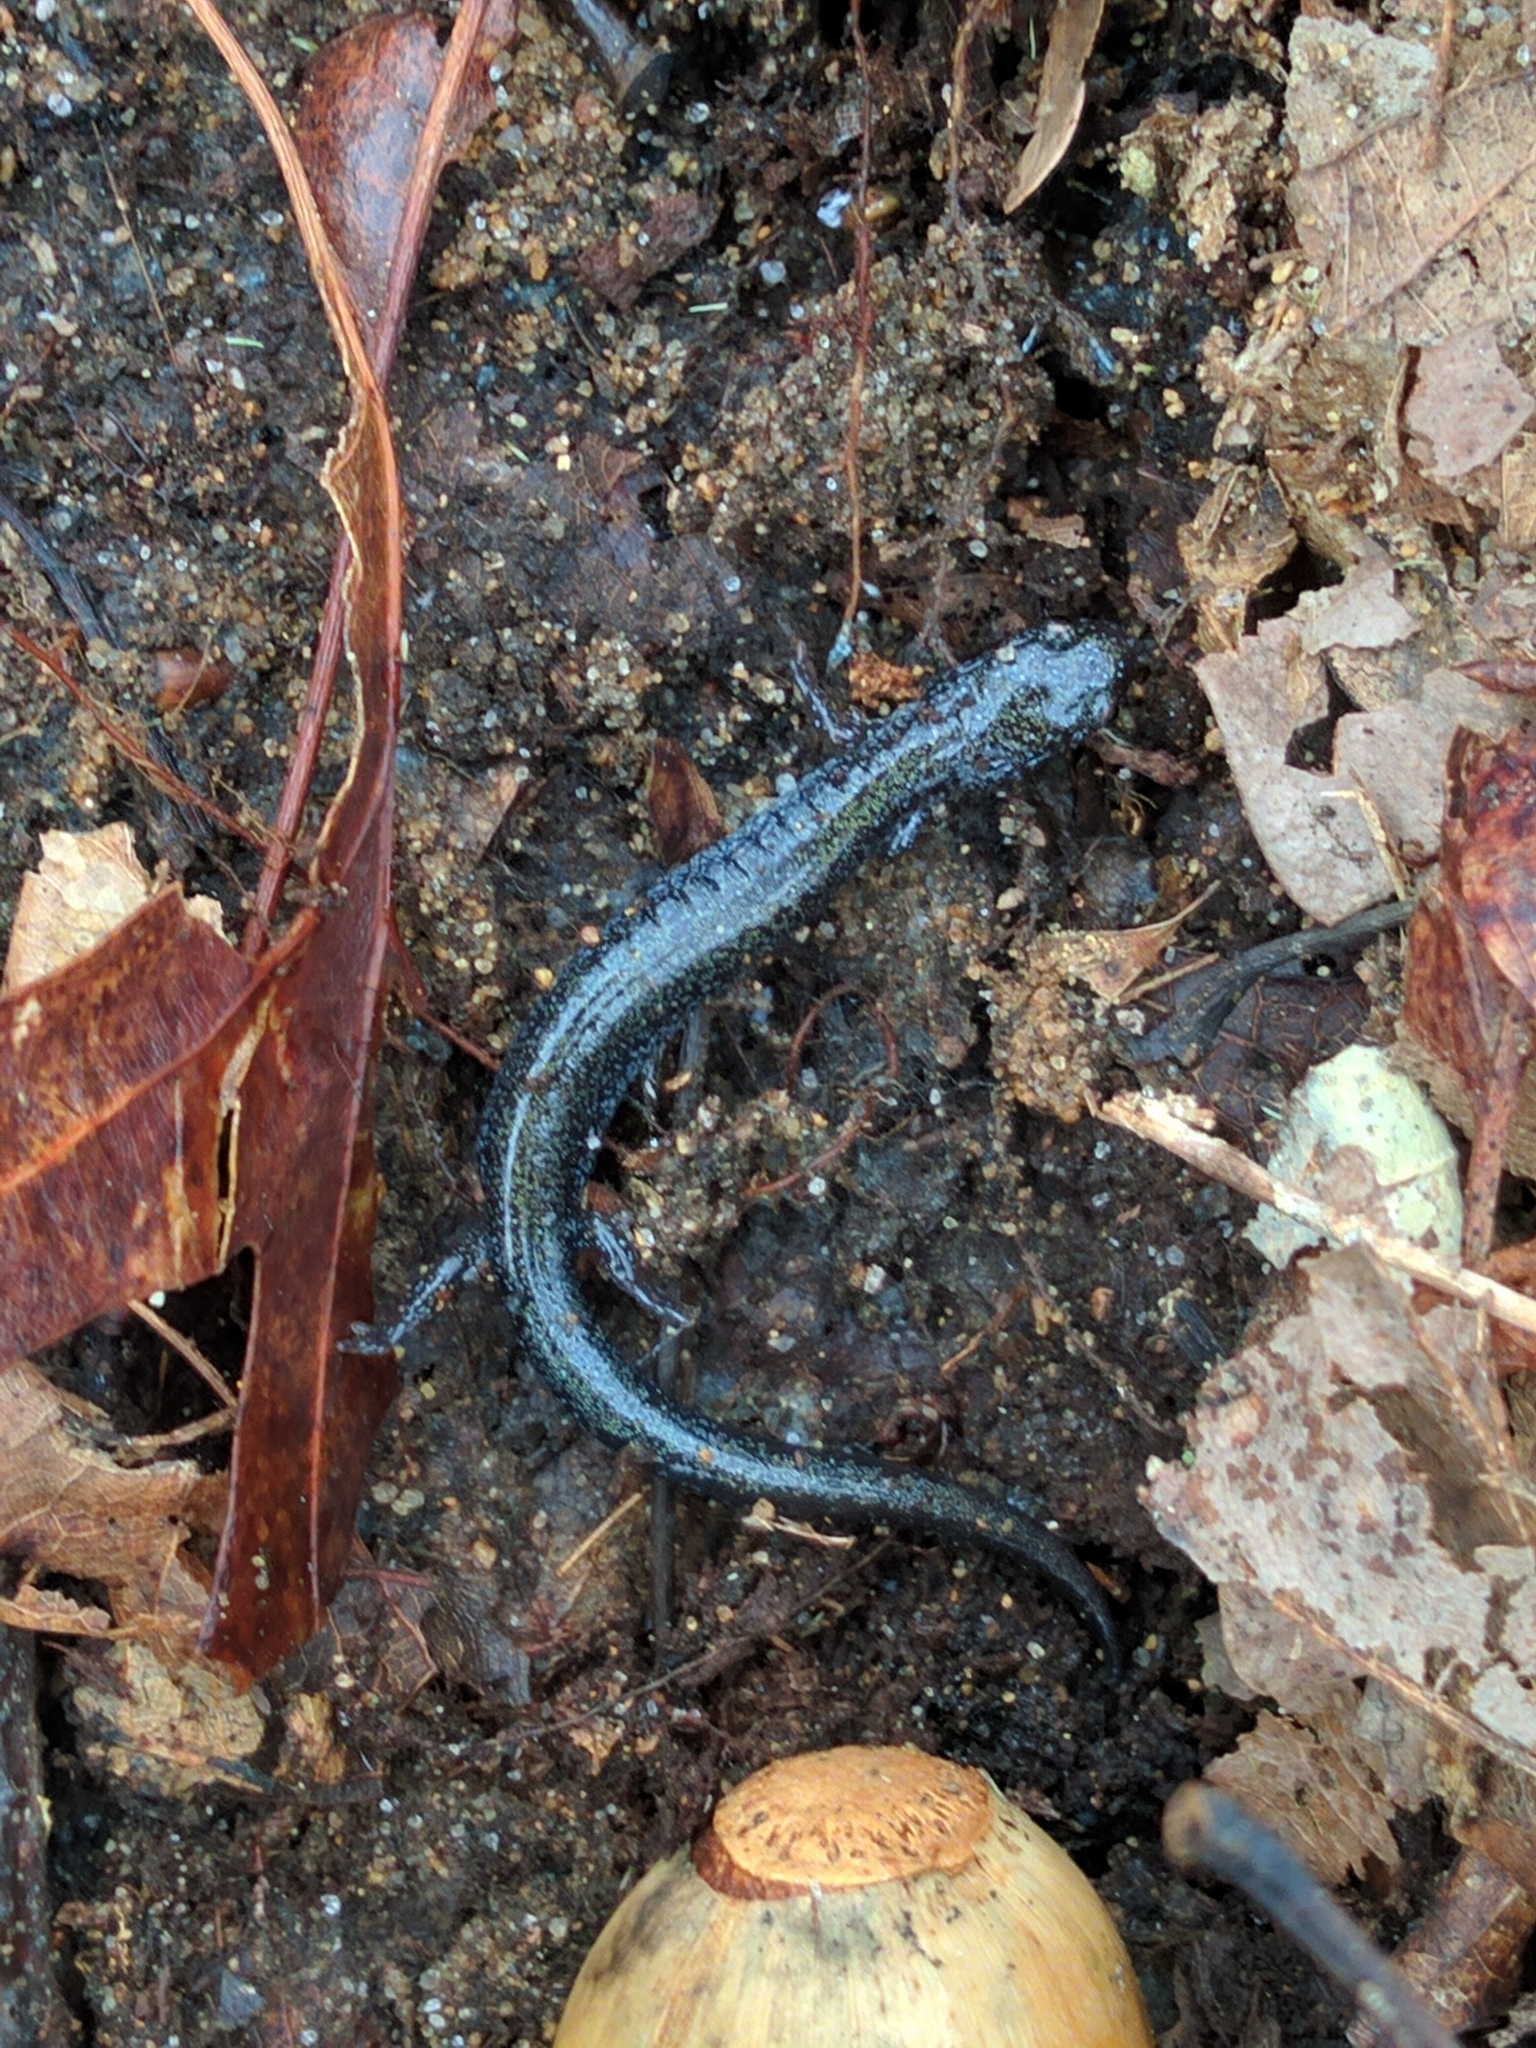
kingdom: Animalia
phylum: Chordata
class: Amphibia
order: Caudata
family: Plethodontidae
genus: Plethodon
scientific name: Plethodon cinereus
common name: Redback salamander
